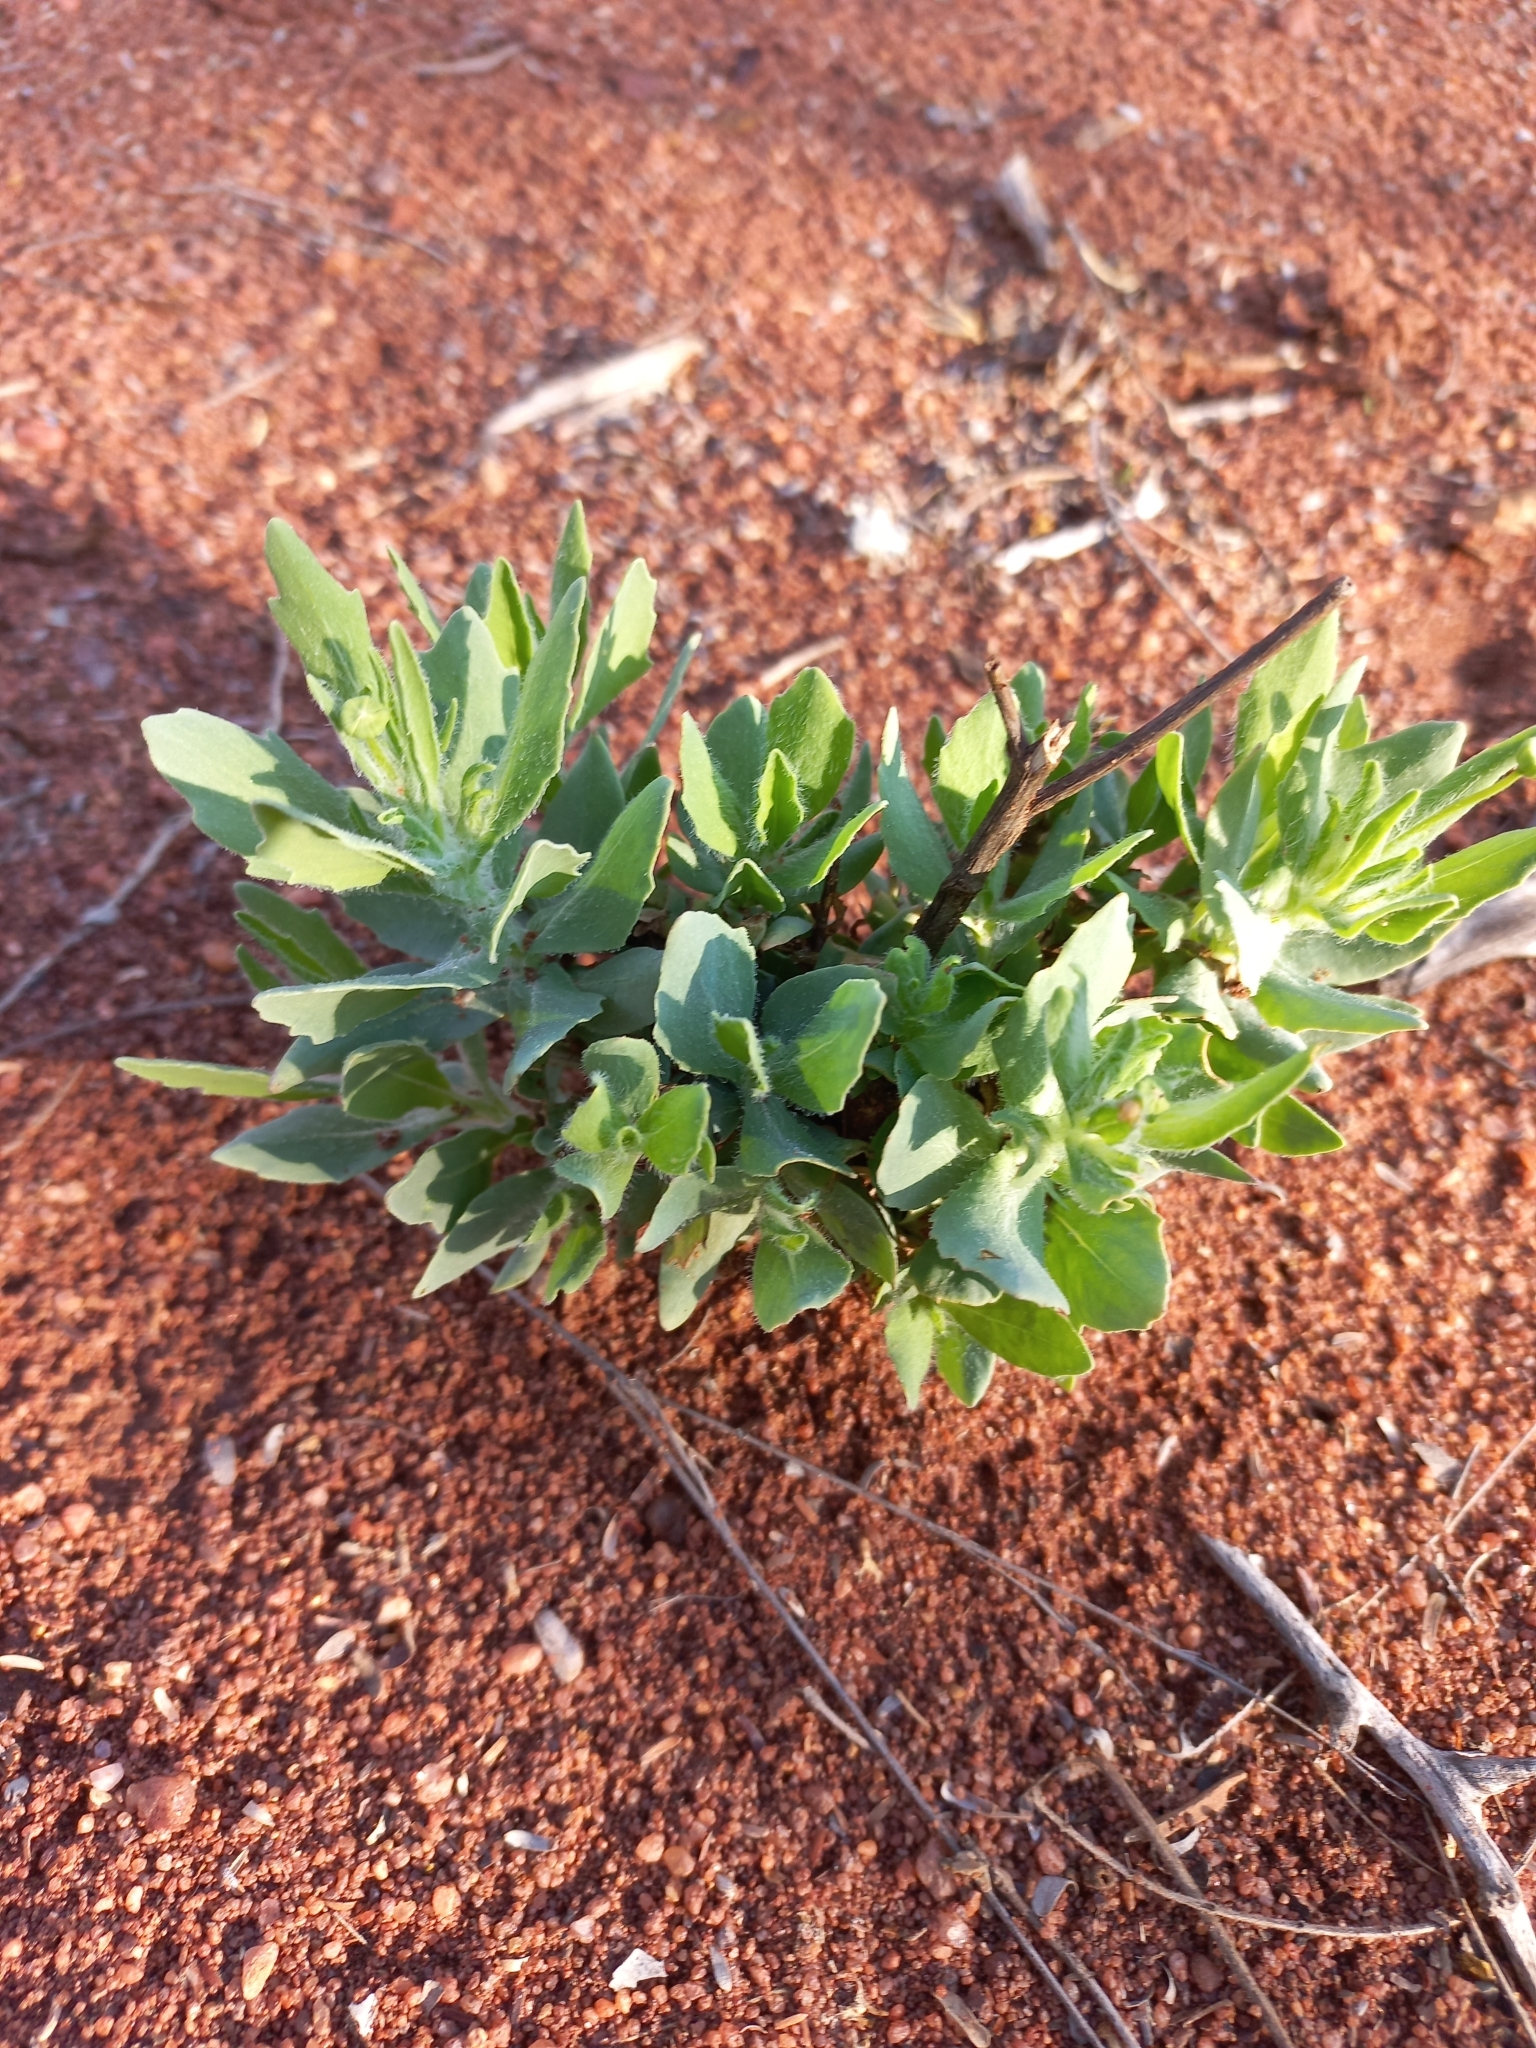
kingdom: Plantae
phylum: Tracheophyta
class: Magnoliopsida
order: Asterales
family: Asteraceae
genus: Emilia
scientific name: Emilia transvaalensis
